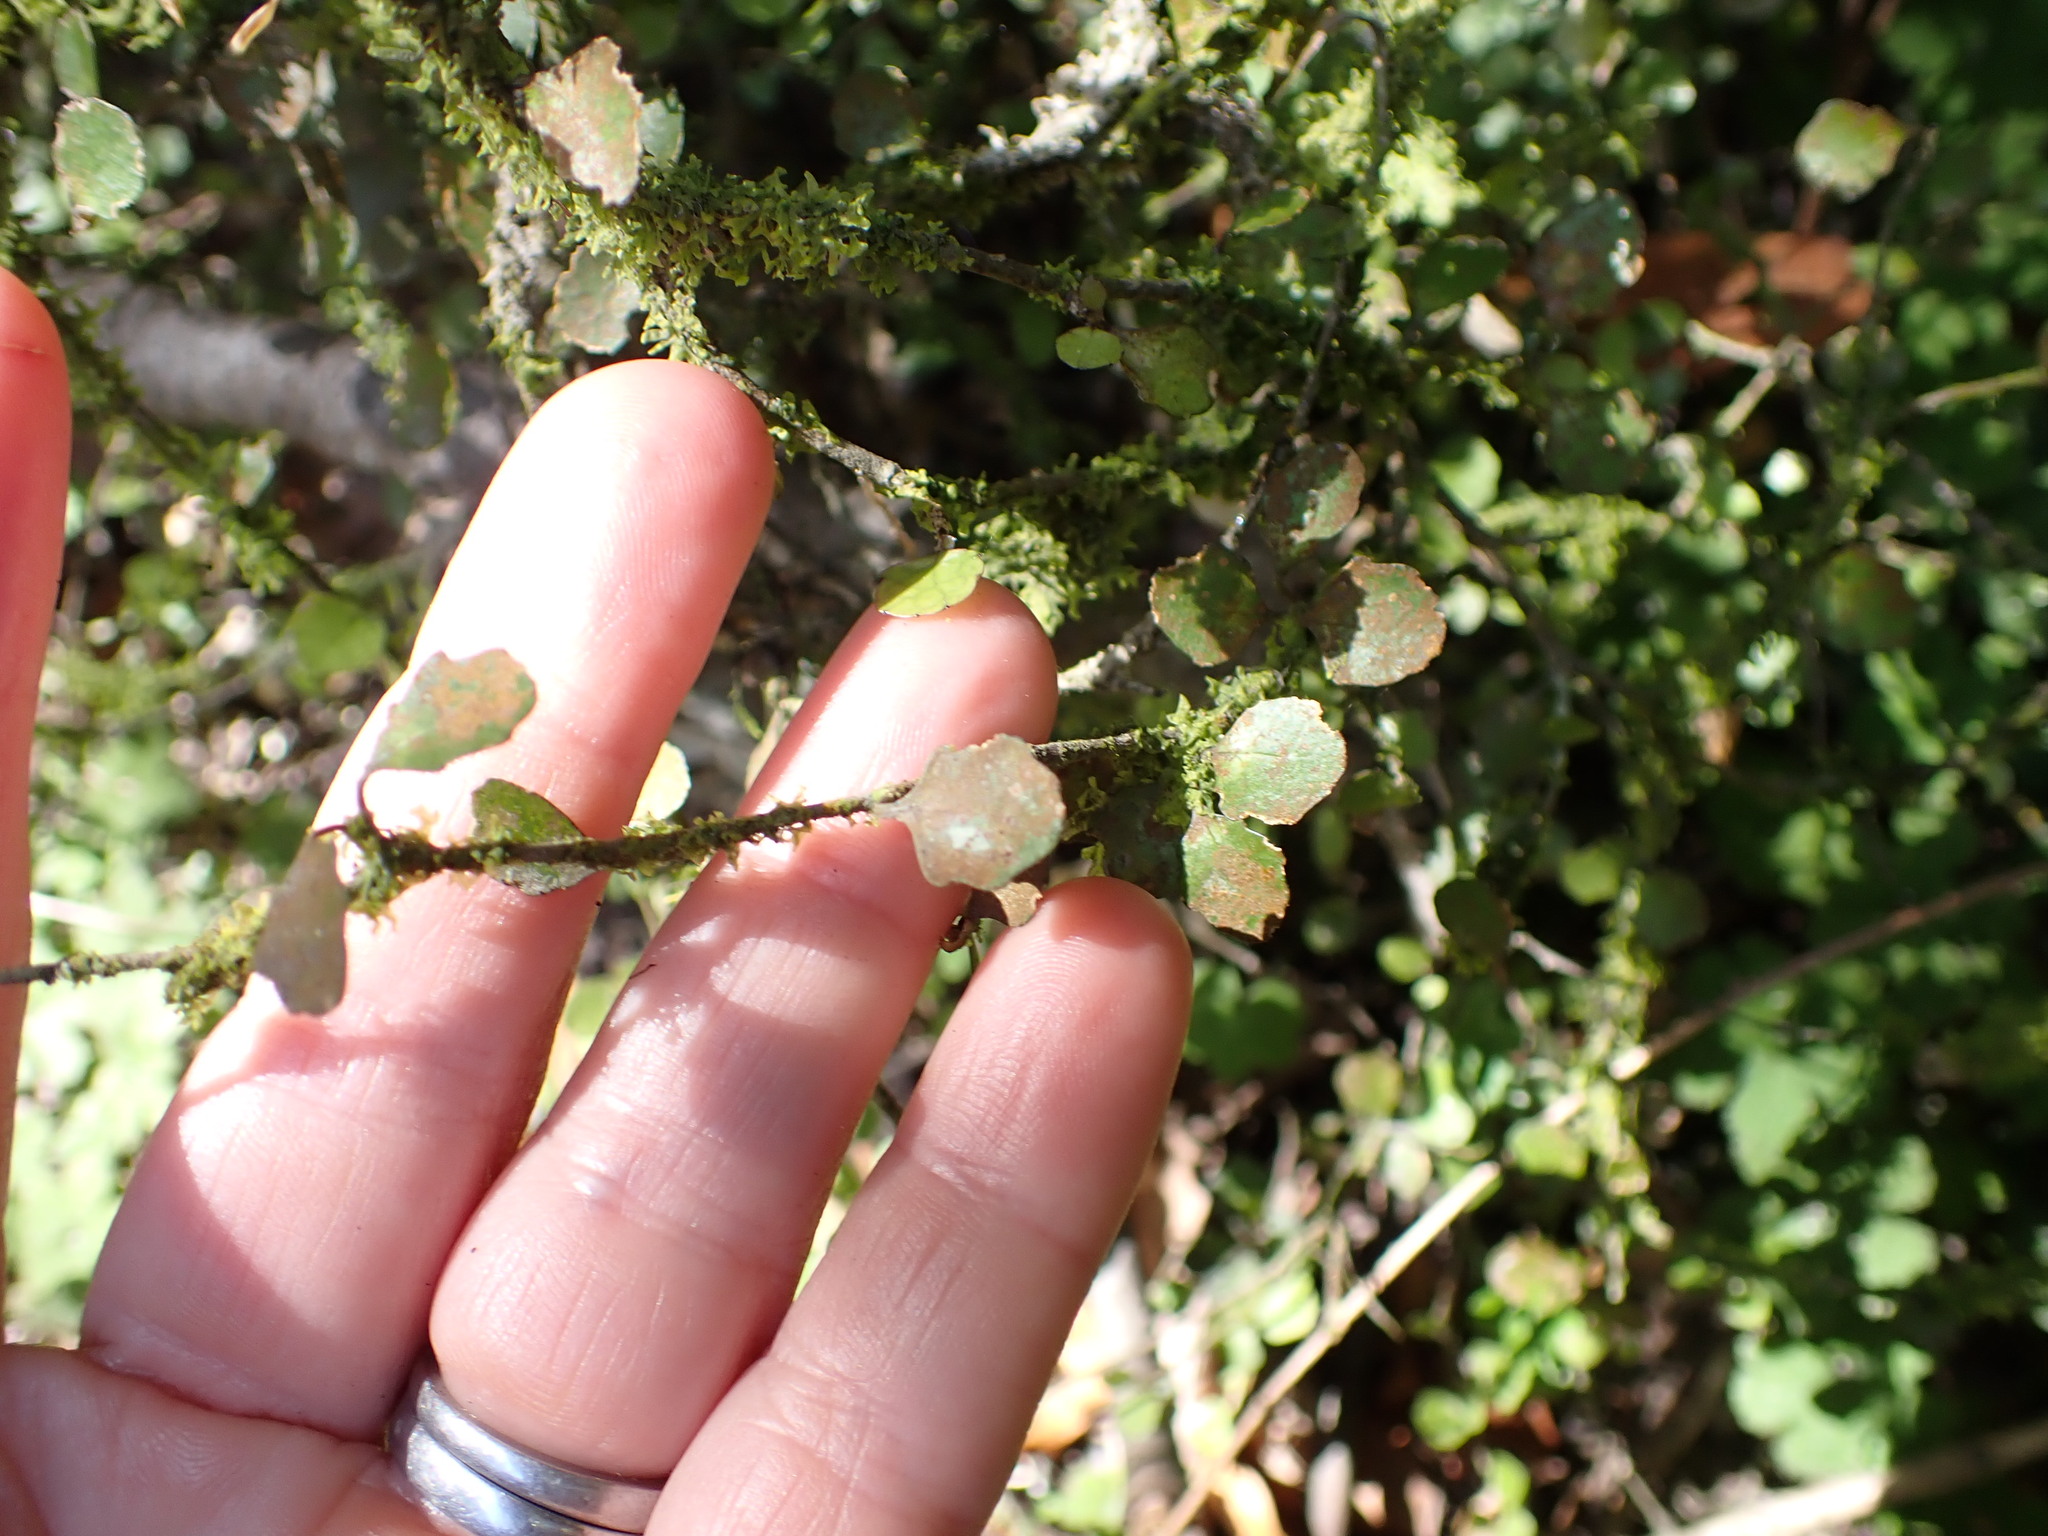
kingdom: Plantae
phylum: Tracheophyta
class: Magnoliopsida
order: Malpighiales
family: Violaceae
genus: Melicytus
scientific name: Melicytus micranthus
